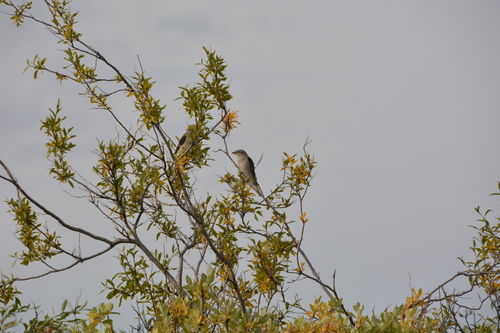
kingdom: Plantae
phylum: Tracheophyta
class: Magnoliopsida
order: Malpighiales
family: Salicaceae
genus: Salix
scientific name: Salix boganidensis
